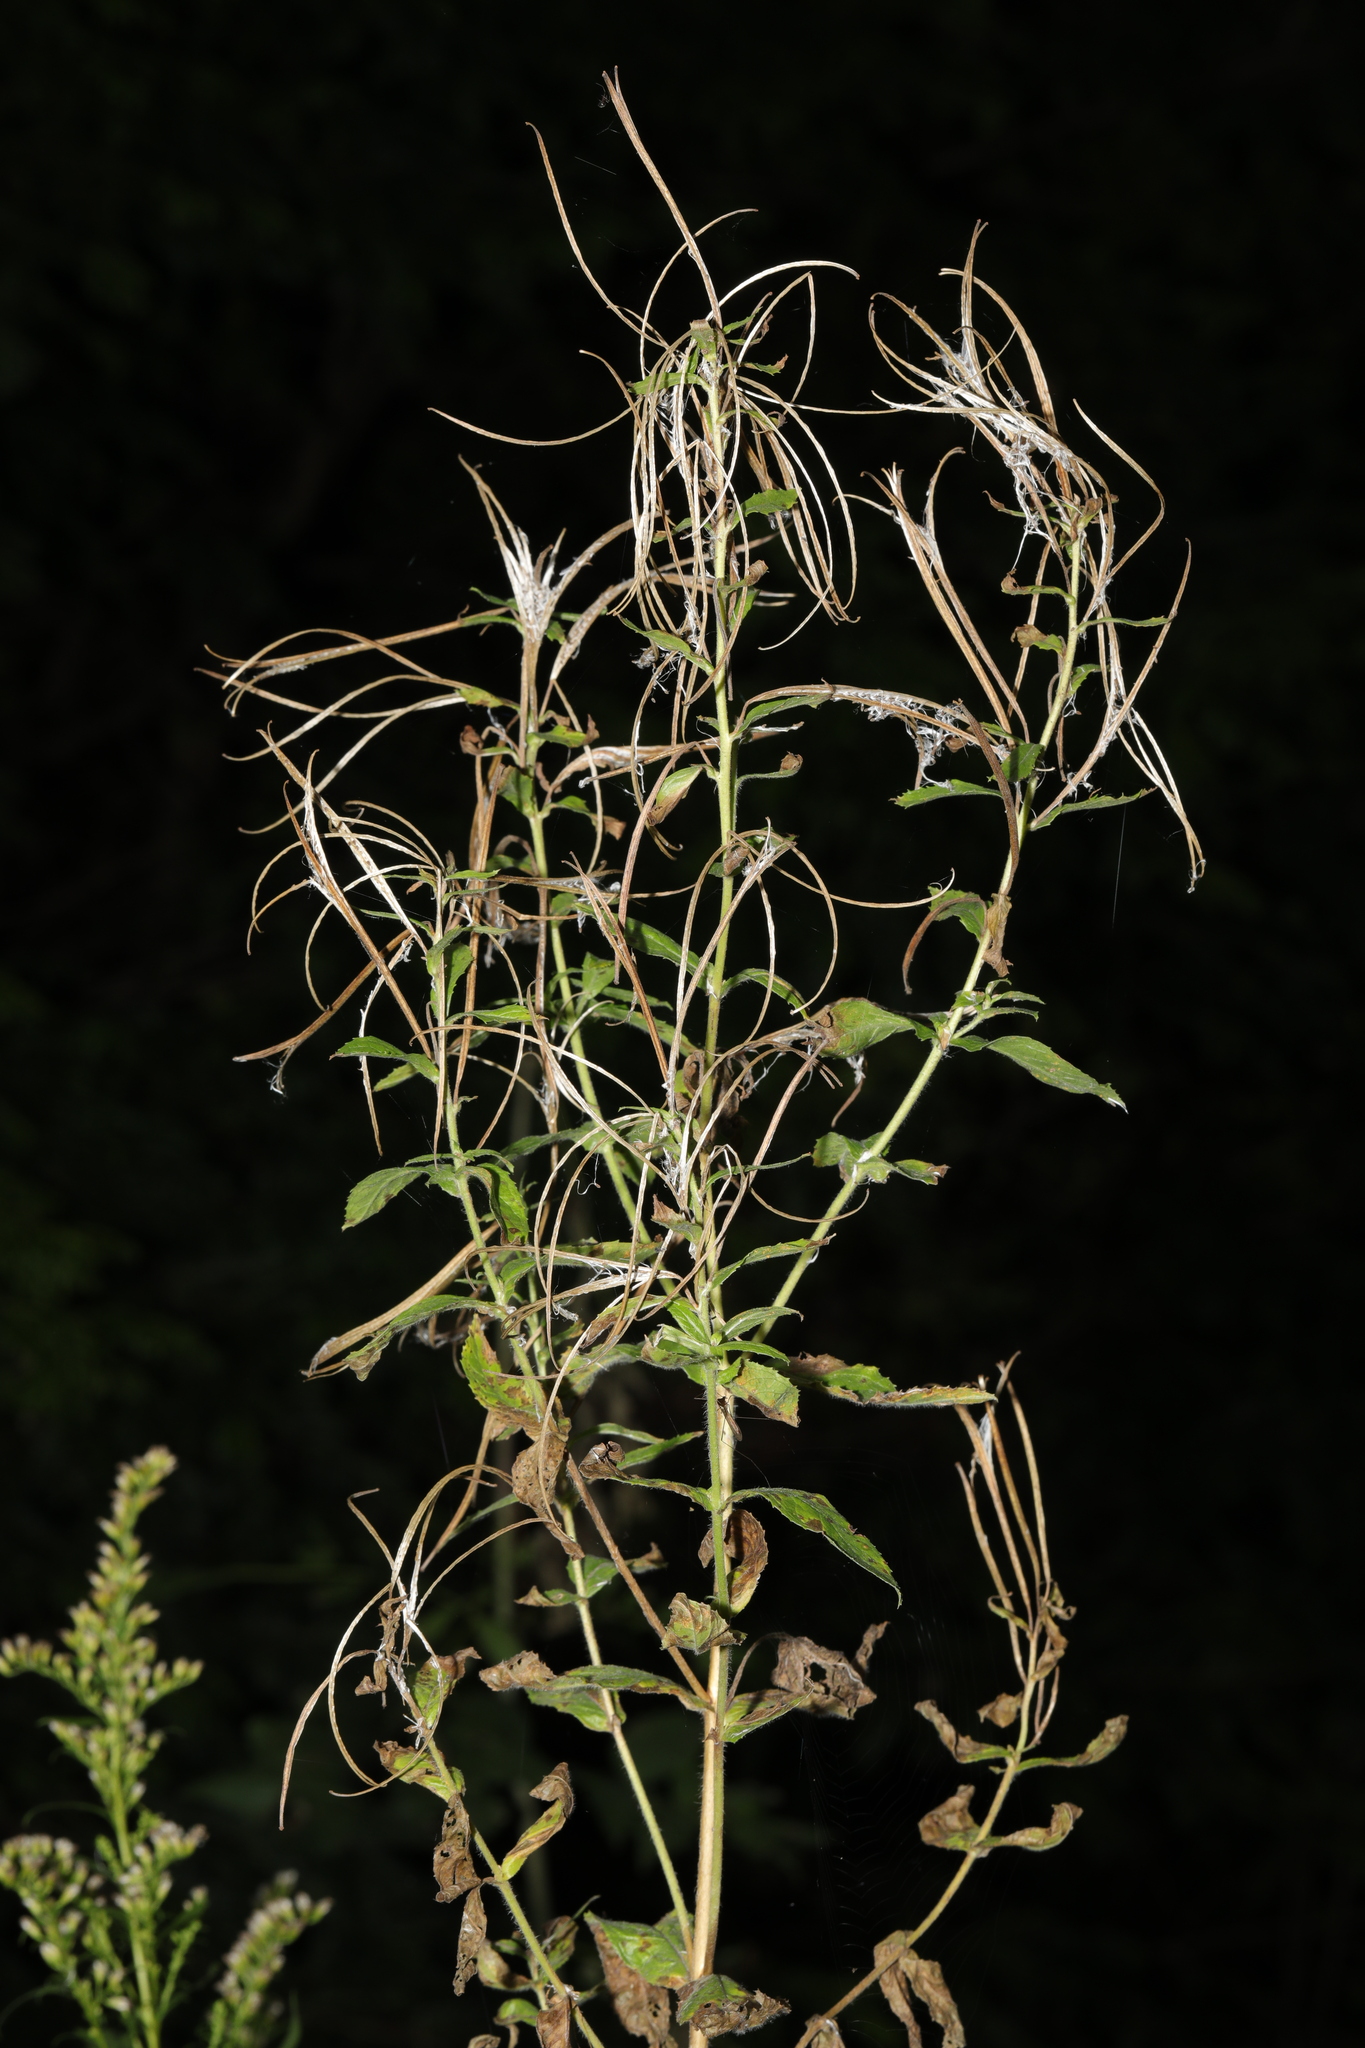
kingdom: Plantae
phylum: Tracheophyta
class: Magnoliopsida
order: Myrtales
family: Onagraceae
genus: Epilobium
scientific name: Epilobium hirsutum
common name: Great willowherb
